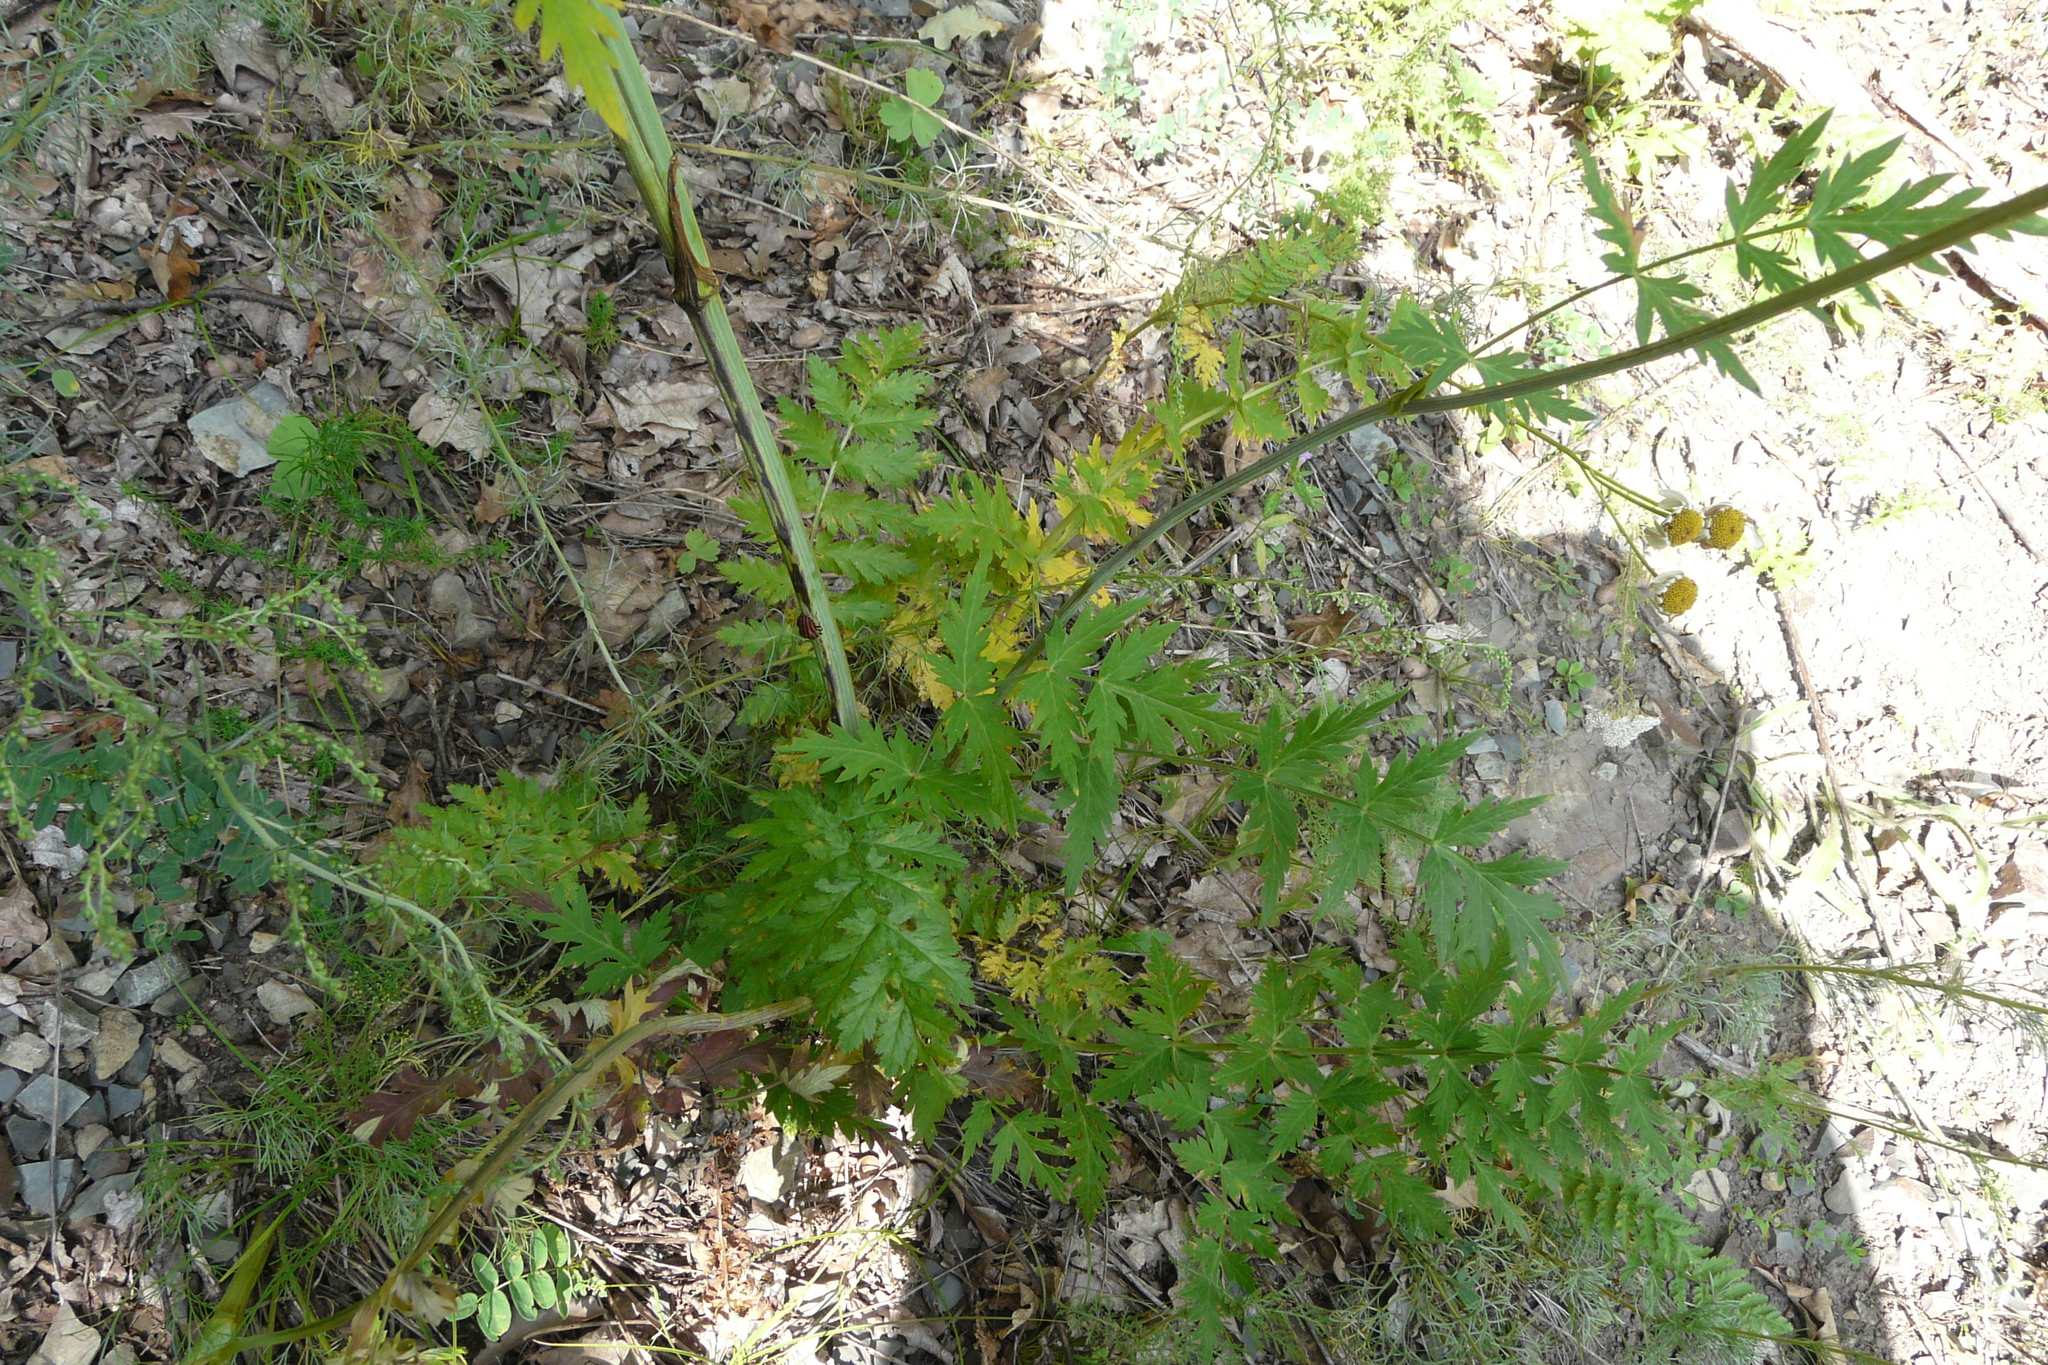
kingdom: Plantae
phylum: Tracheophyta
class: Magnoliopsida
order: Apiales
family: Apiaceae
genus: Seseli
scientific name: Seseli libanotis
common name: Mooncarrot
